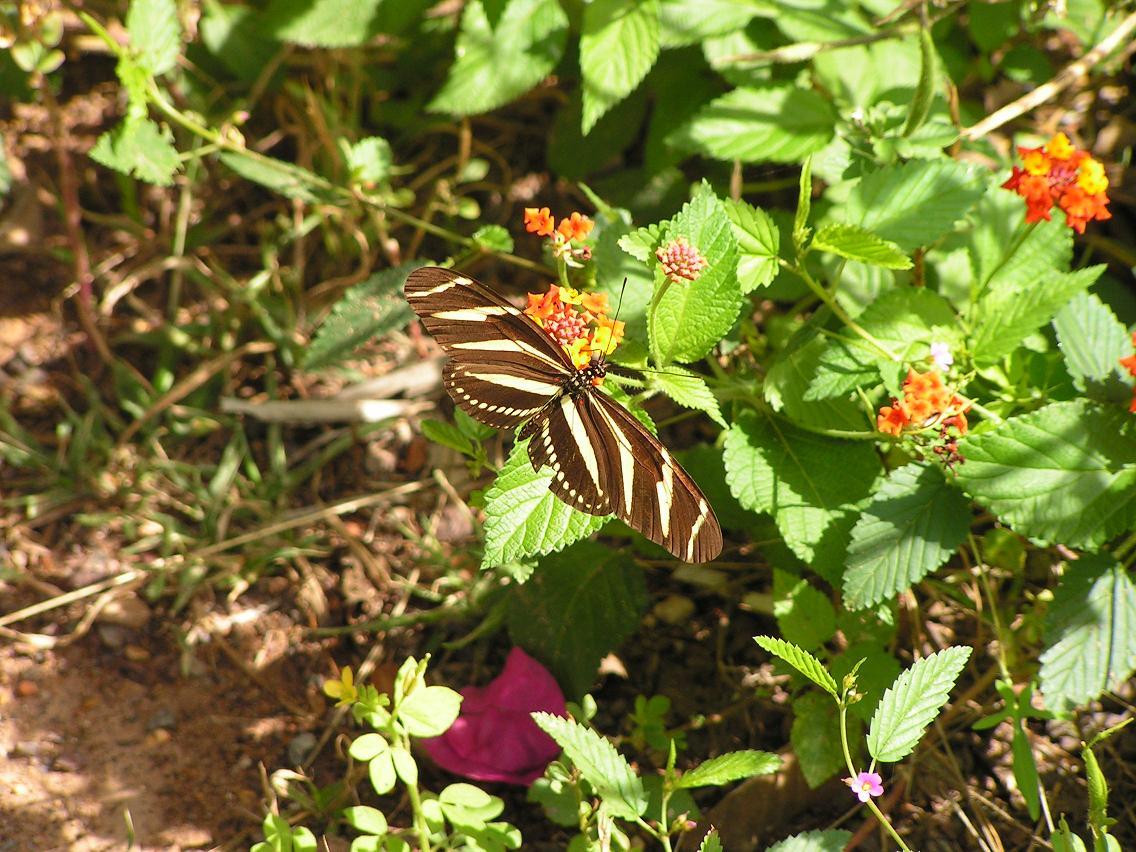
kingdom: Animalia
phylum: Arthropoda
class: Insecta
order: Lepidoptera
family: Nymphalidae
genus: Heliconius
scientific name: Heliconius charithonia
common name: Zebra long wing
